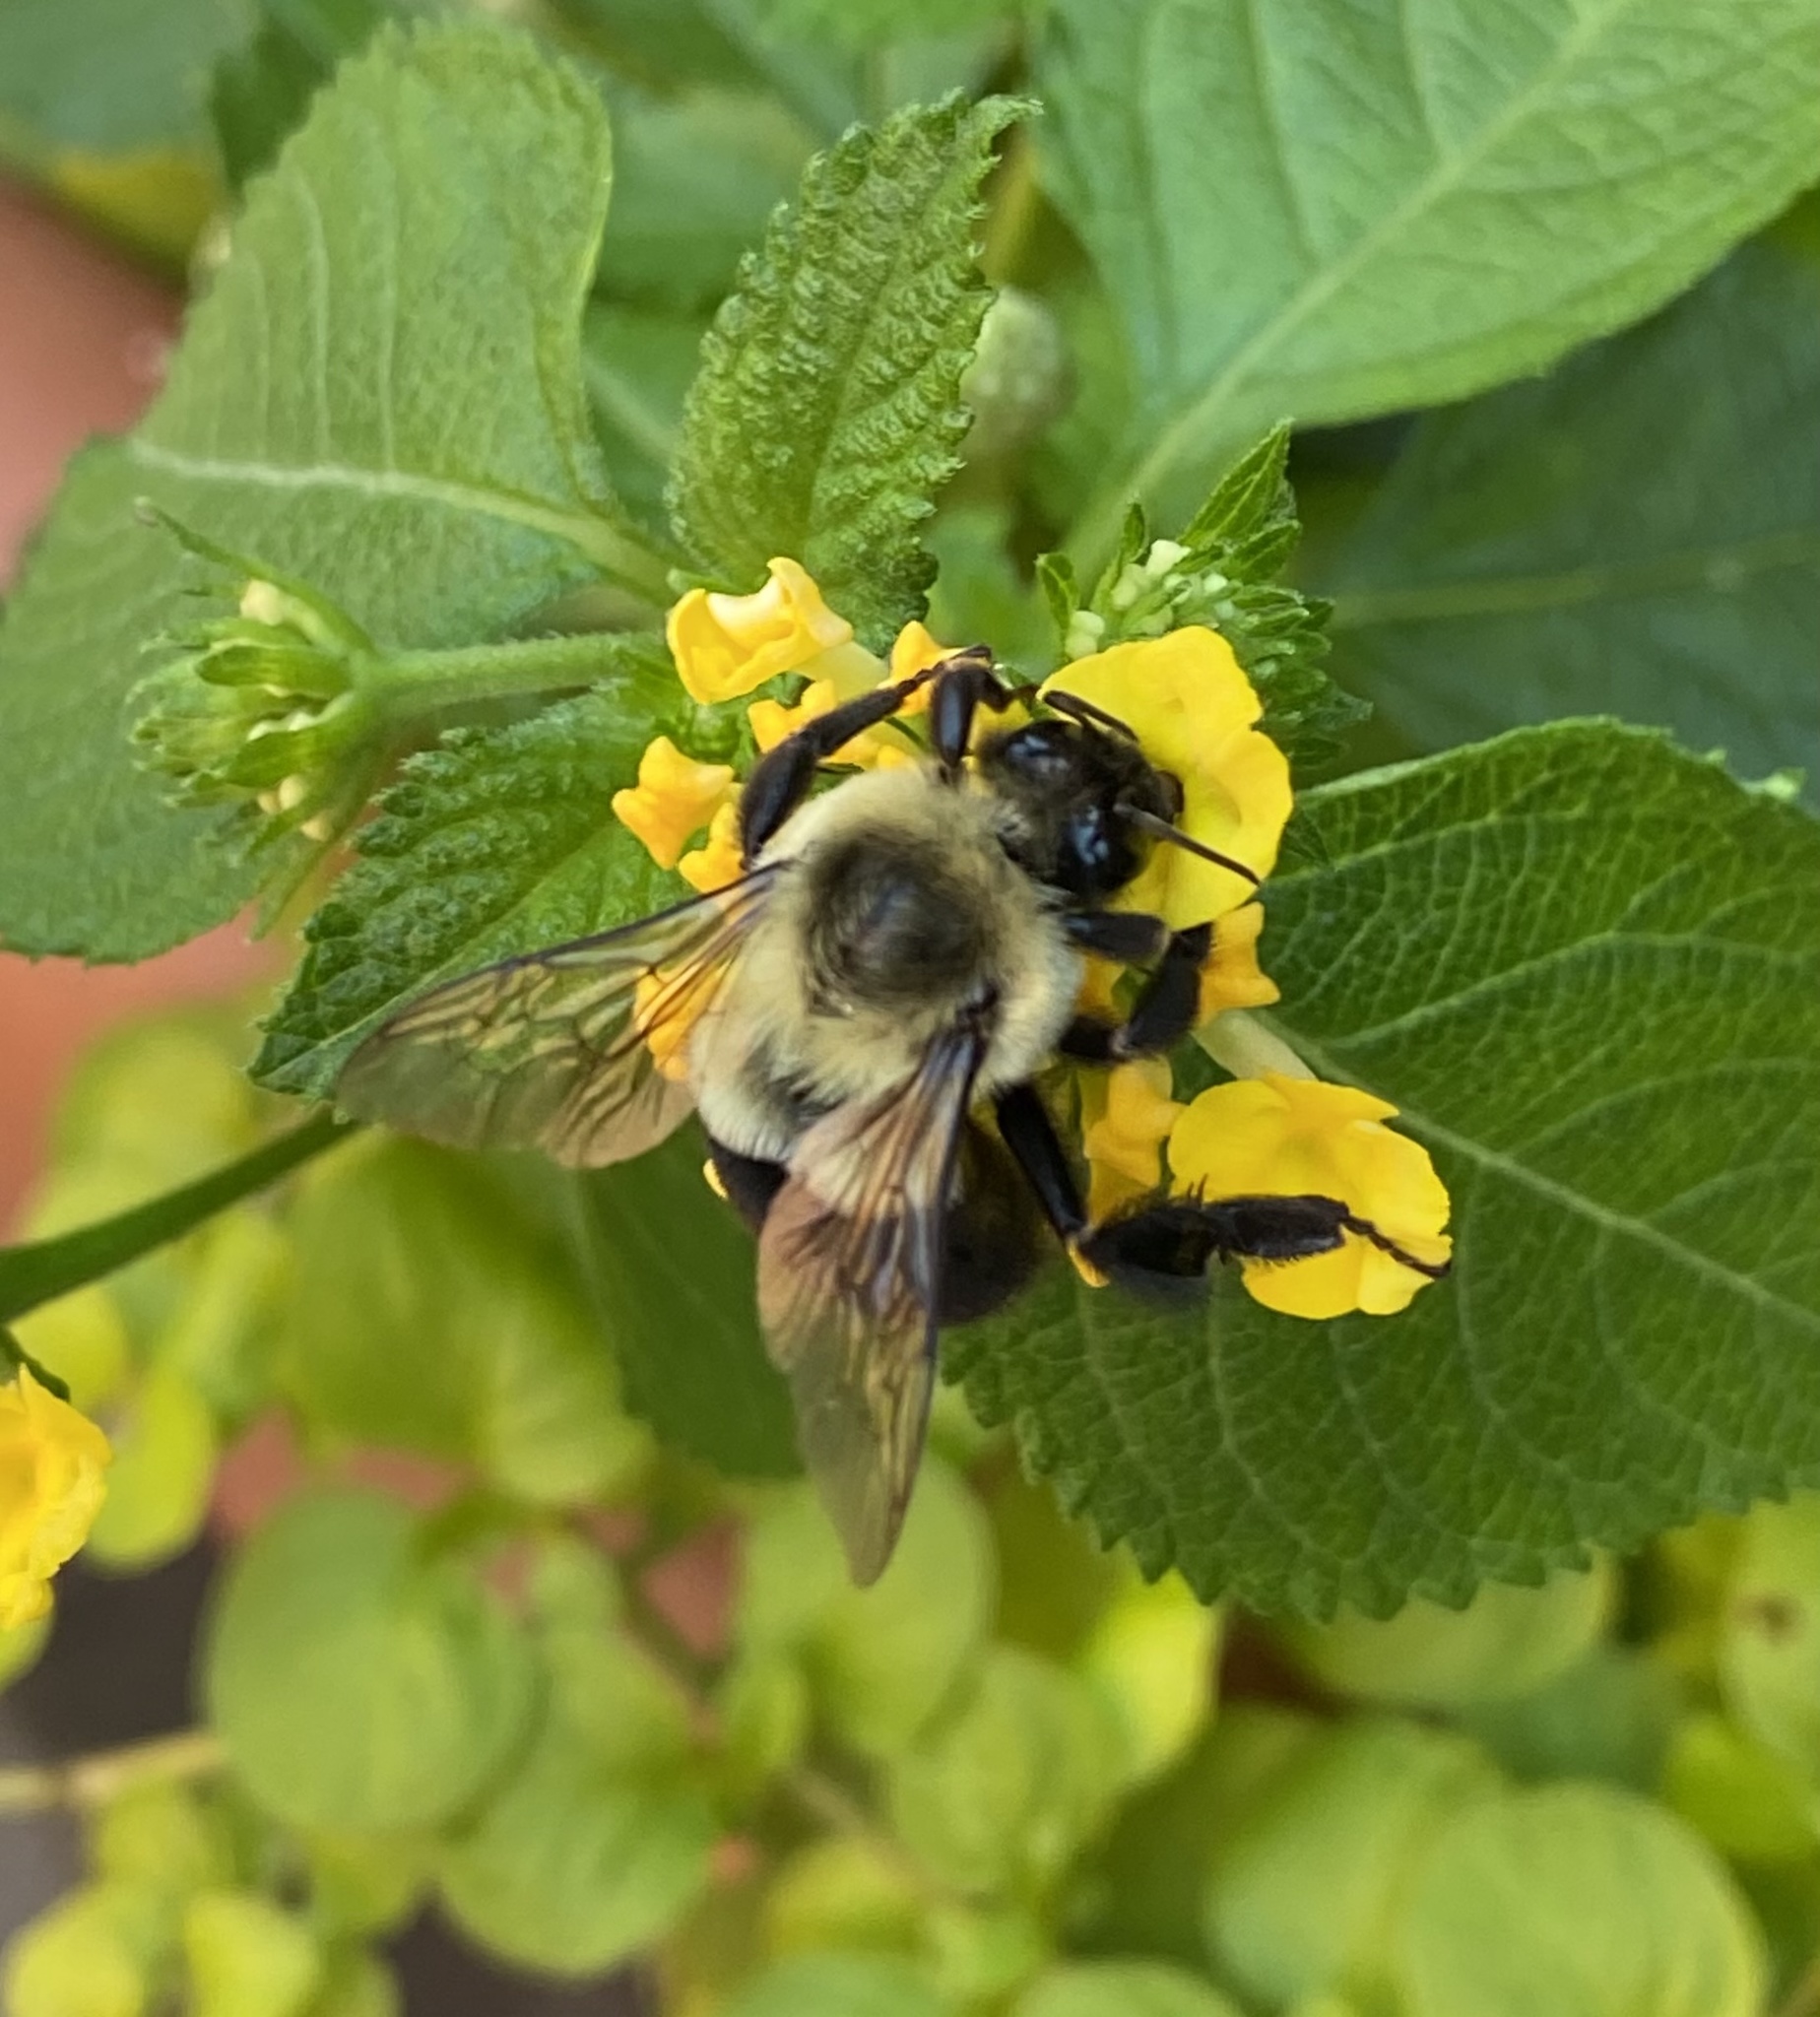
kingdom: Animalia
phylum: Arthropoda
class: Insecta
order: Hymenoptera
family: Apidae
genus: Bombus
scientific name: Bombus impatiens
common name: Common eastern bumble bee
